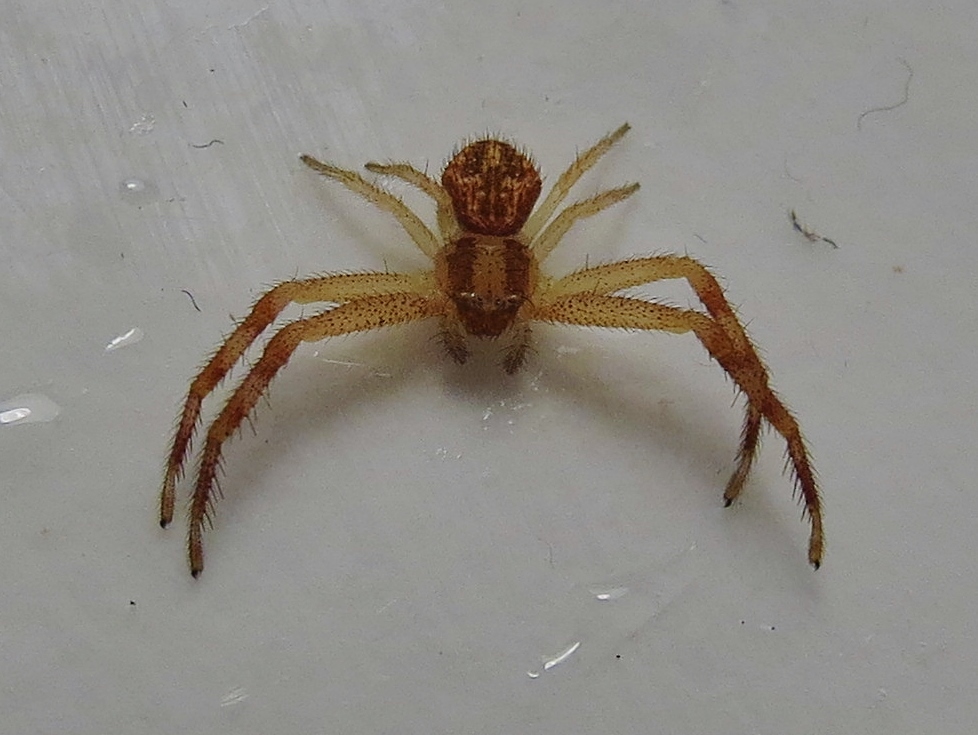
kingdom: Animalia
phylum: Arthropoda
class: Arachnida
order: Araneae
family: Thomisidae
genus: Mecaphesa
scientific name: Mecaphesa asperata
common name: Crab spiders
